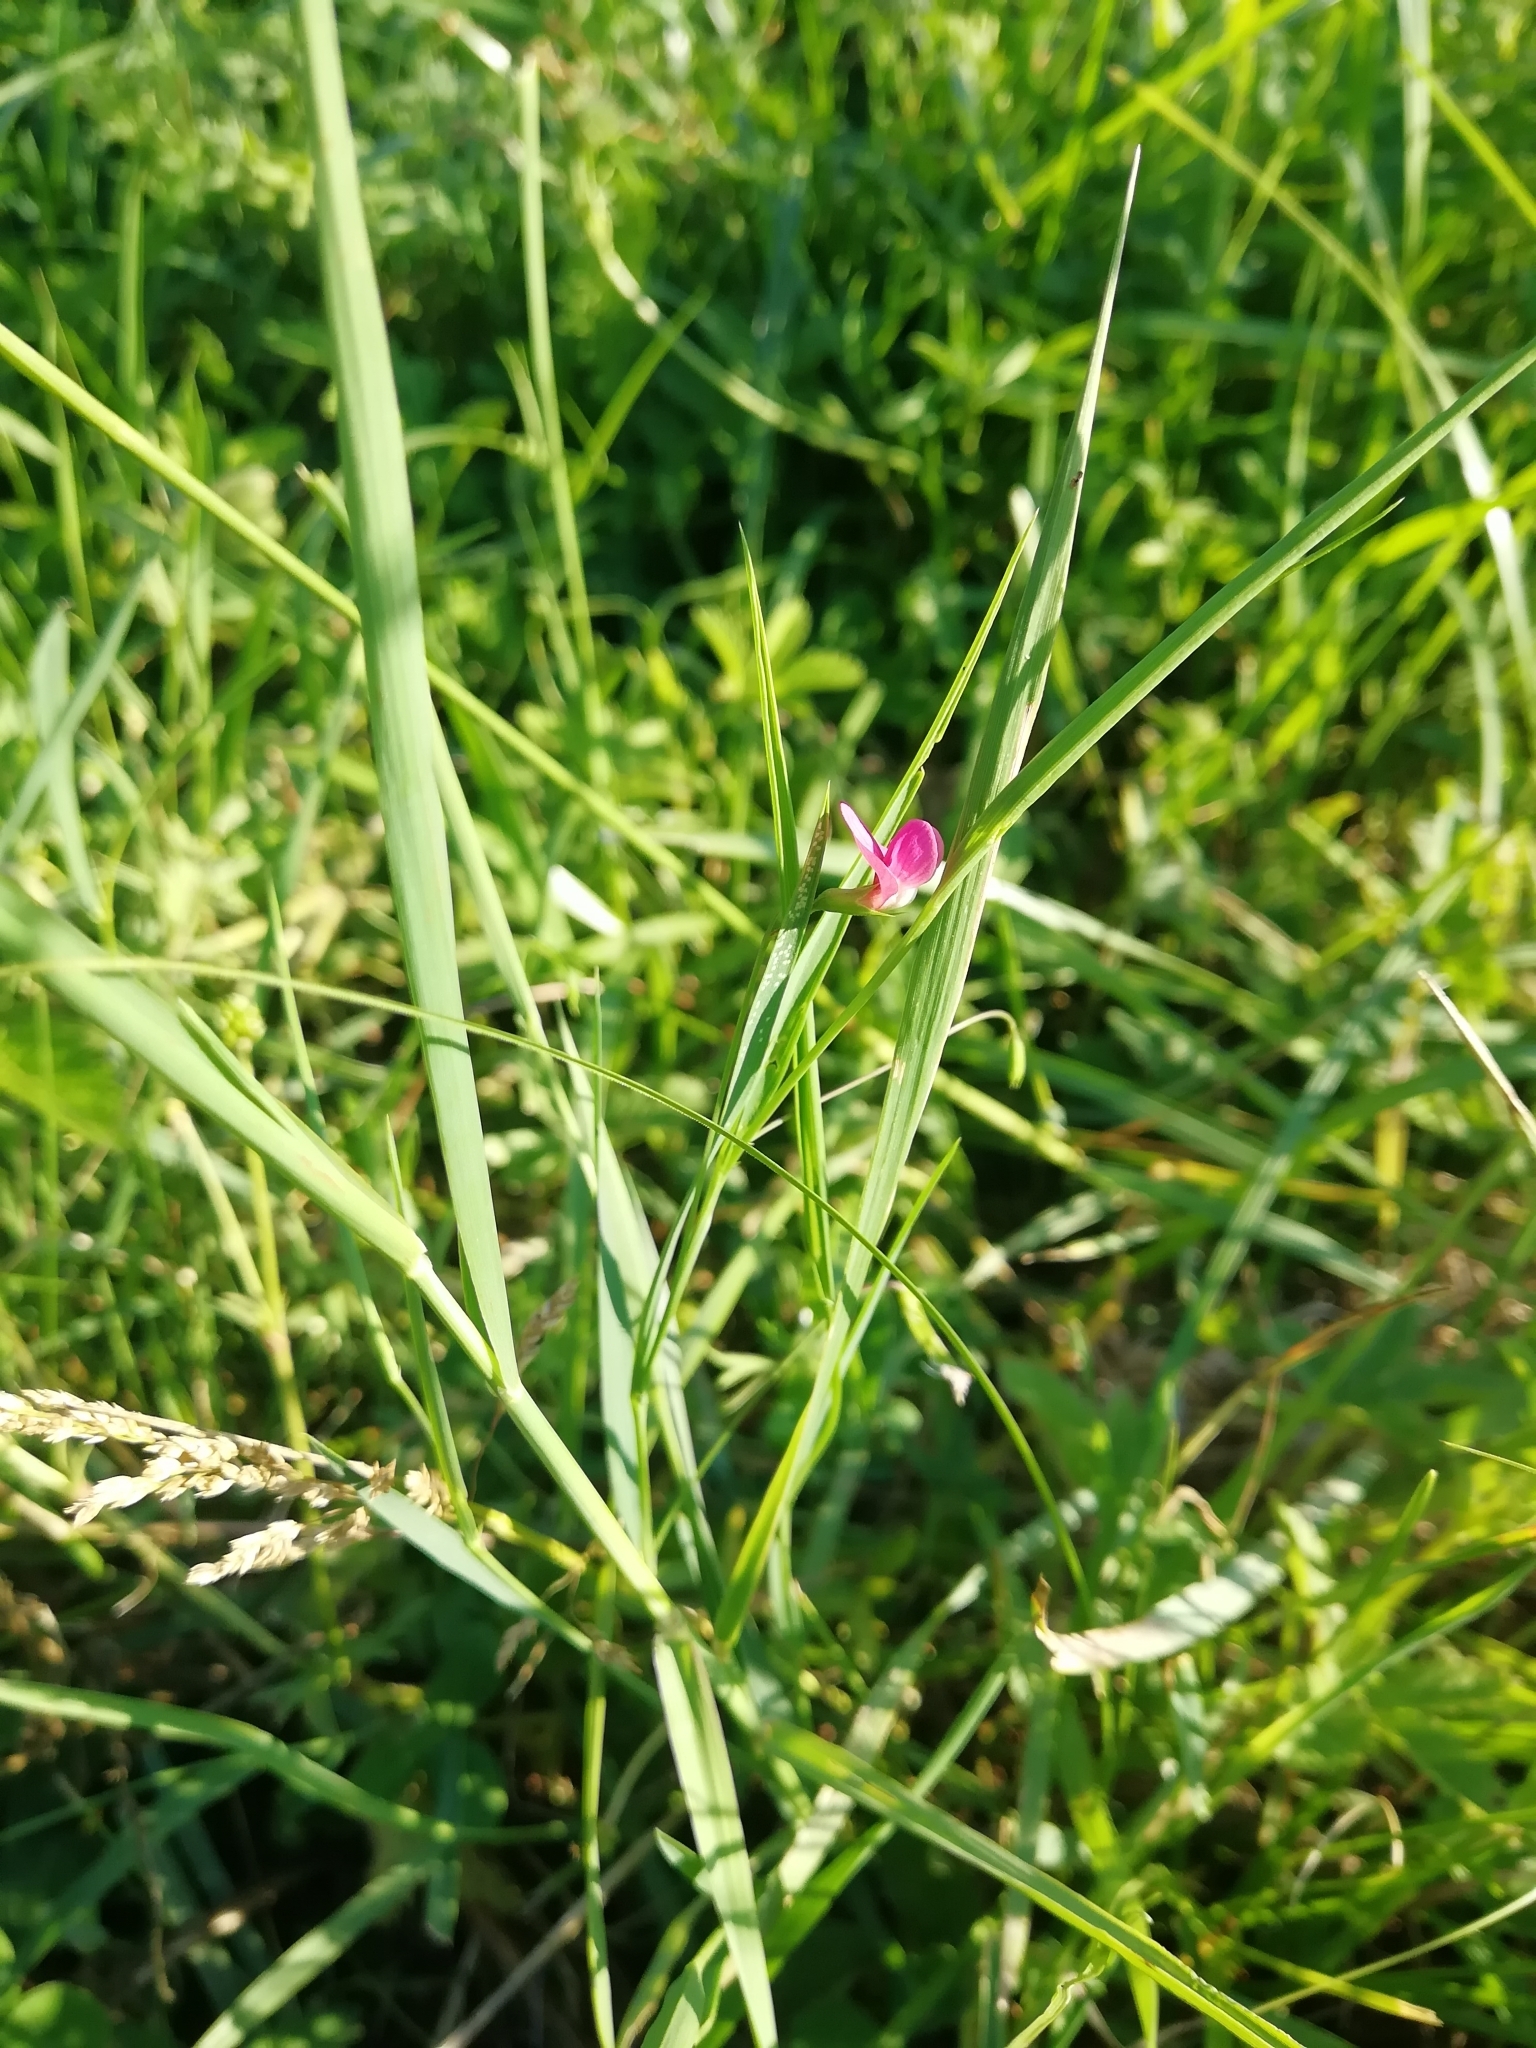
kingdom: Plantae
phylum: Tracheophyta
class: Magnoliopsida
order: Fabales
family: Fabaceae
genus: Lathyrus
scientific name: Lathyrus nissolia
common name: Grass vetchling
